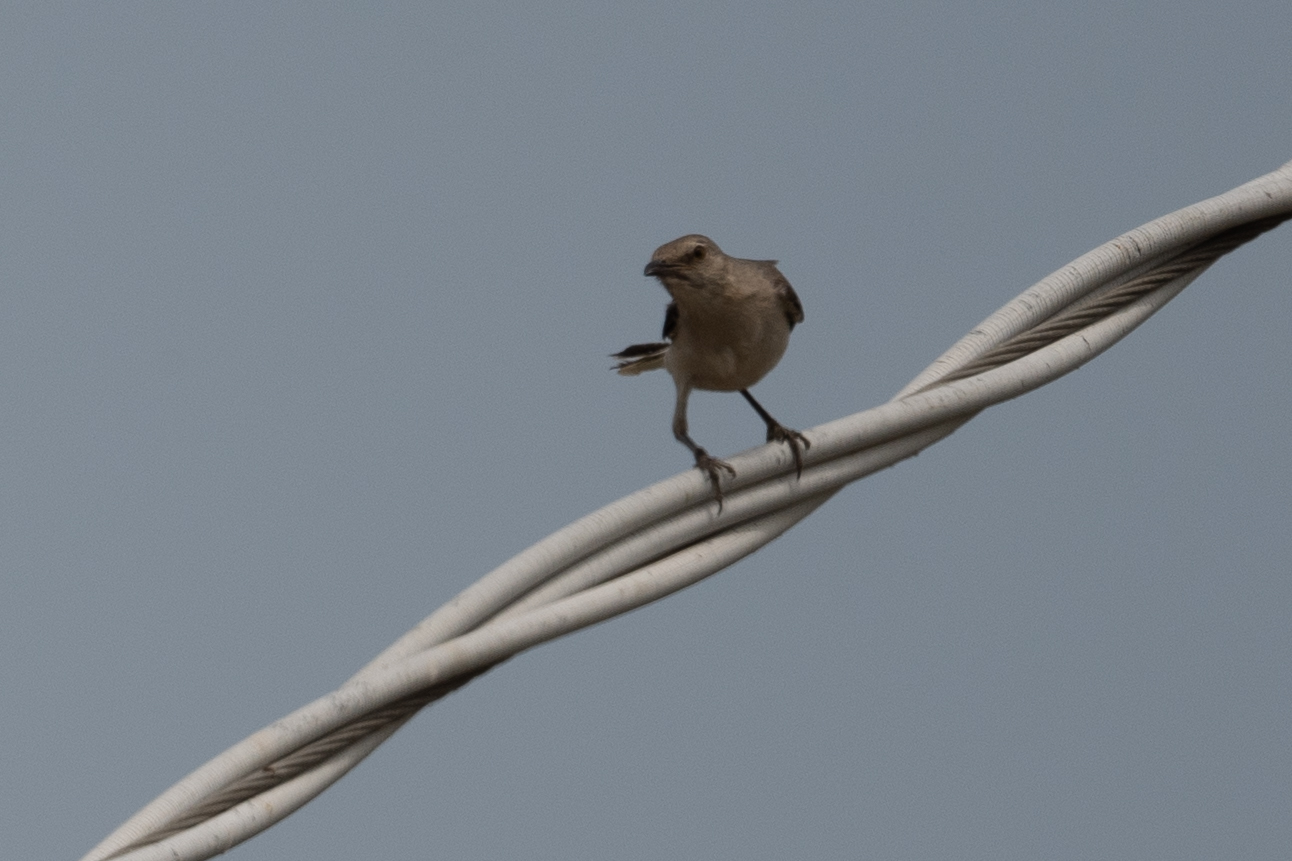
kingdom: Animalia
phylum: Chordata
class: Aves
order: Passeriformes
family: Mimidae
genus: Mimus
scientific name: Mimus polyglottos
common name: Northern mockingbird
